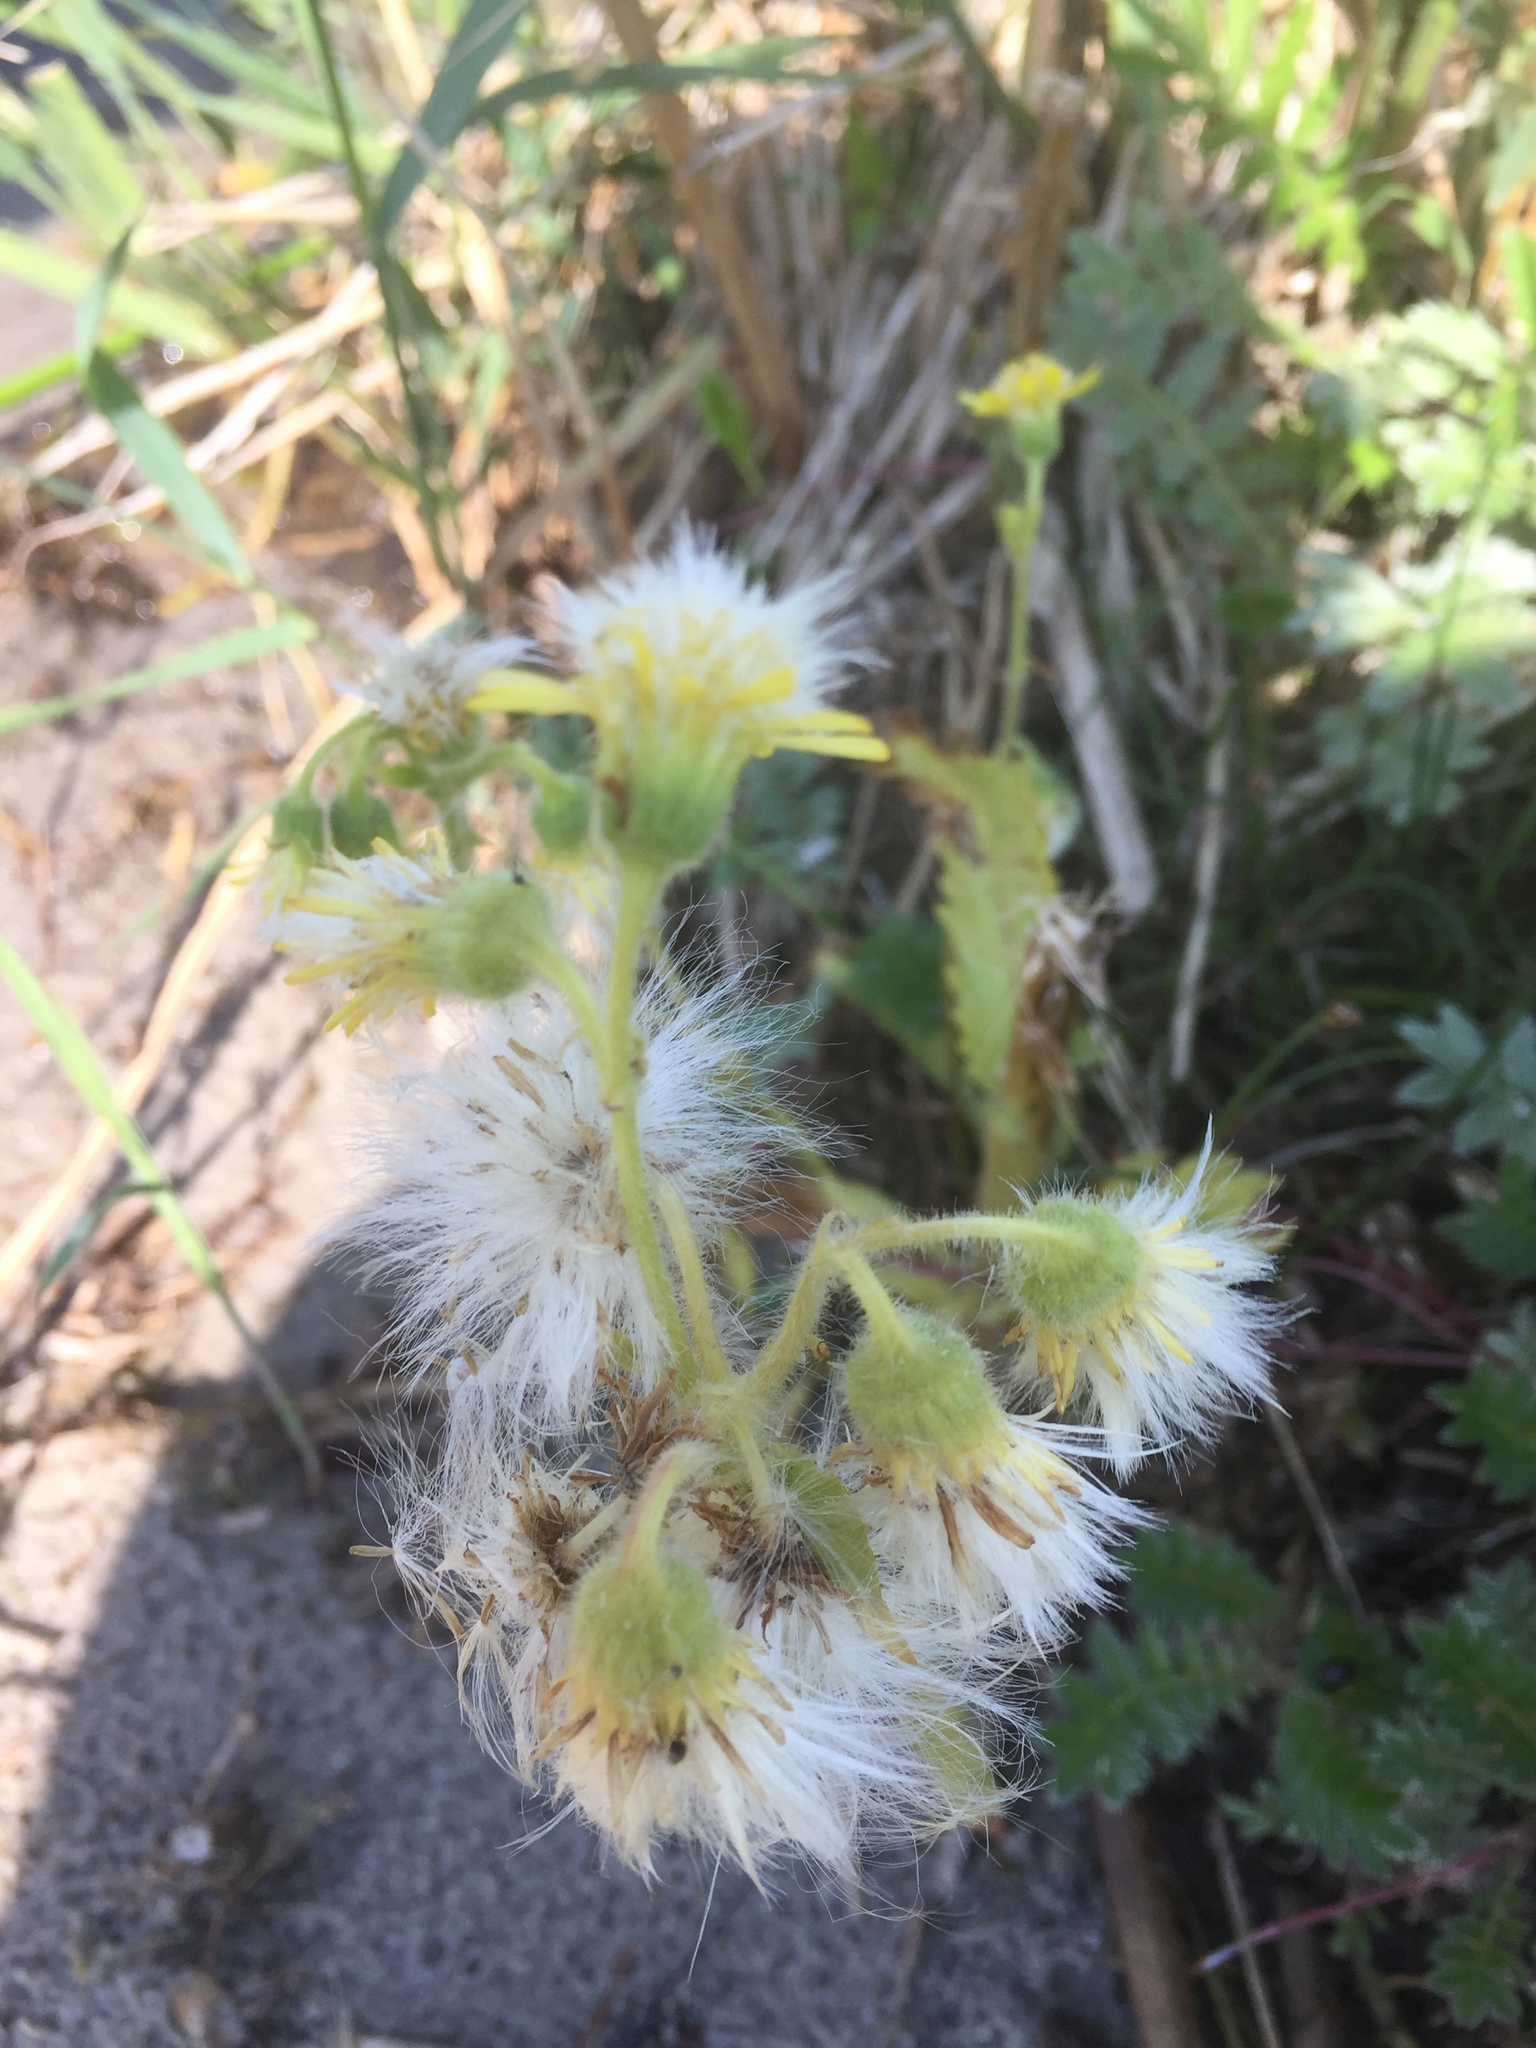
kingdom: Plantae
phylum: Tracheophyta
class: Magnoliopsida
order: Asterales
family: Asteraceae
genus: Tephroseris
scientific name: Tephroseris palustris
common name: Marsh fleawort
